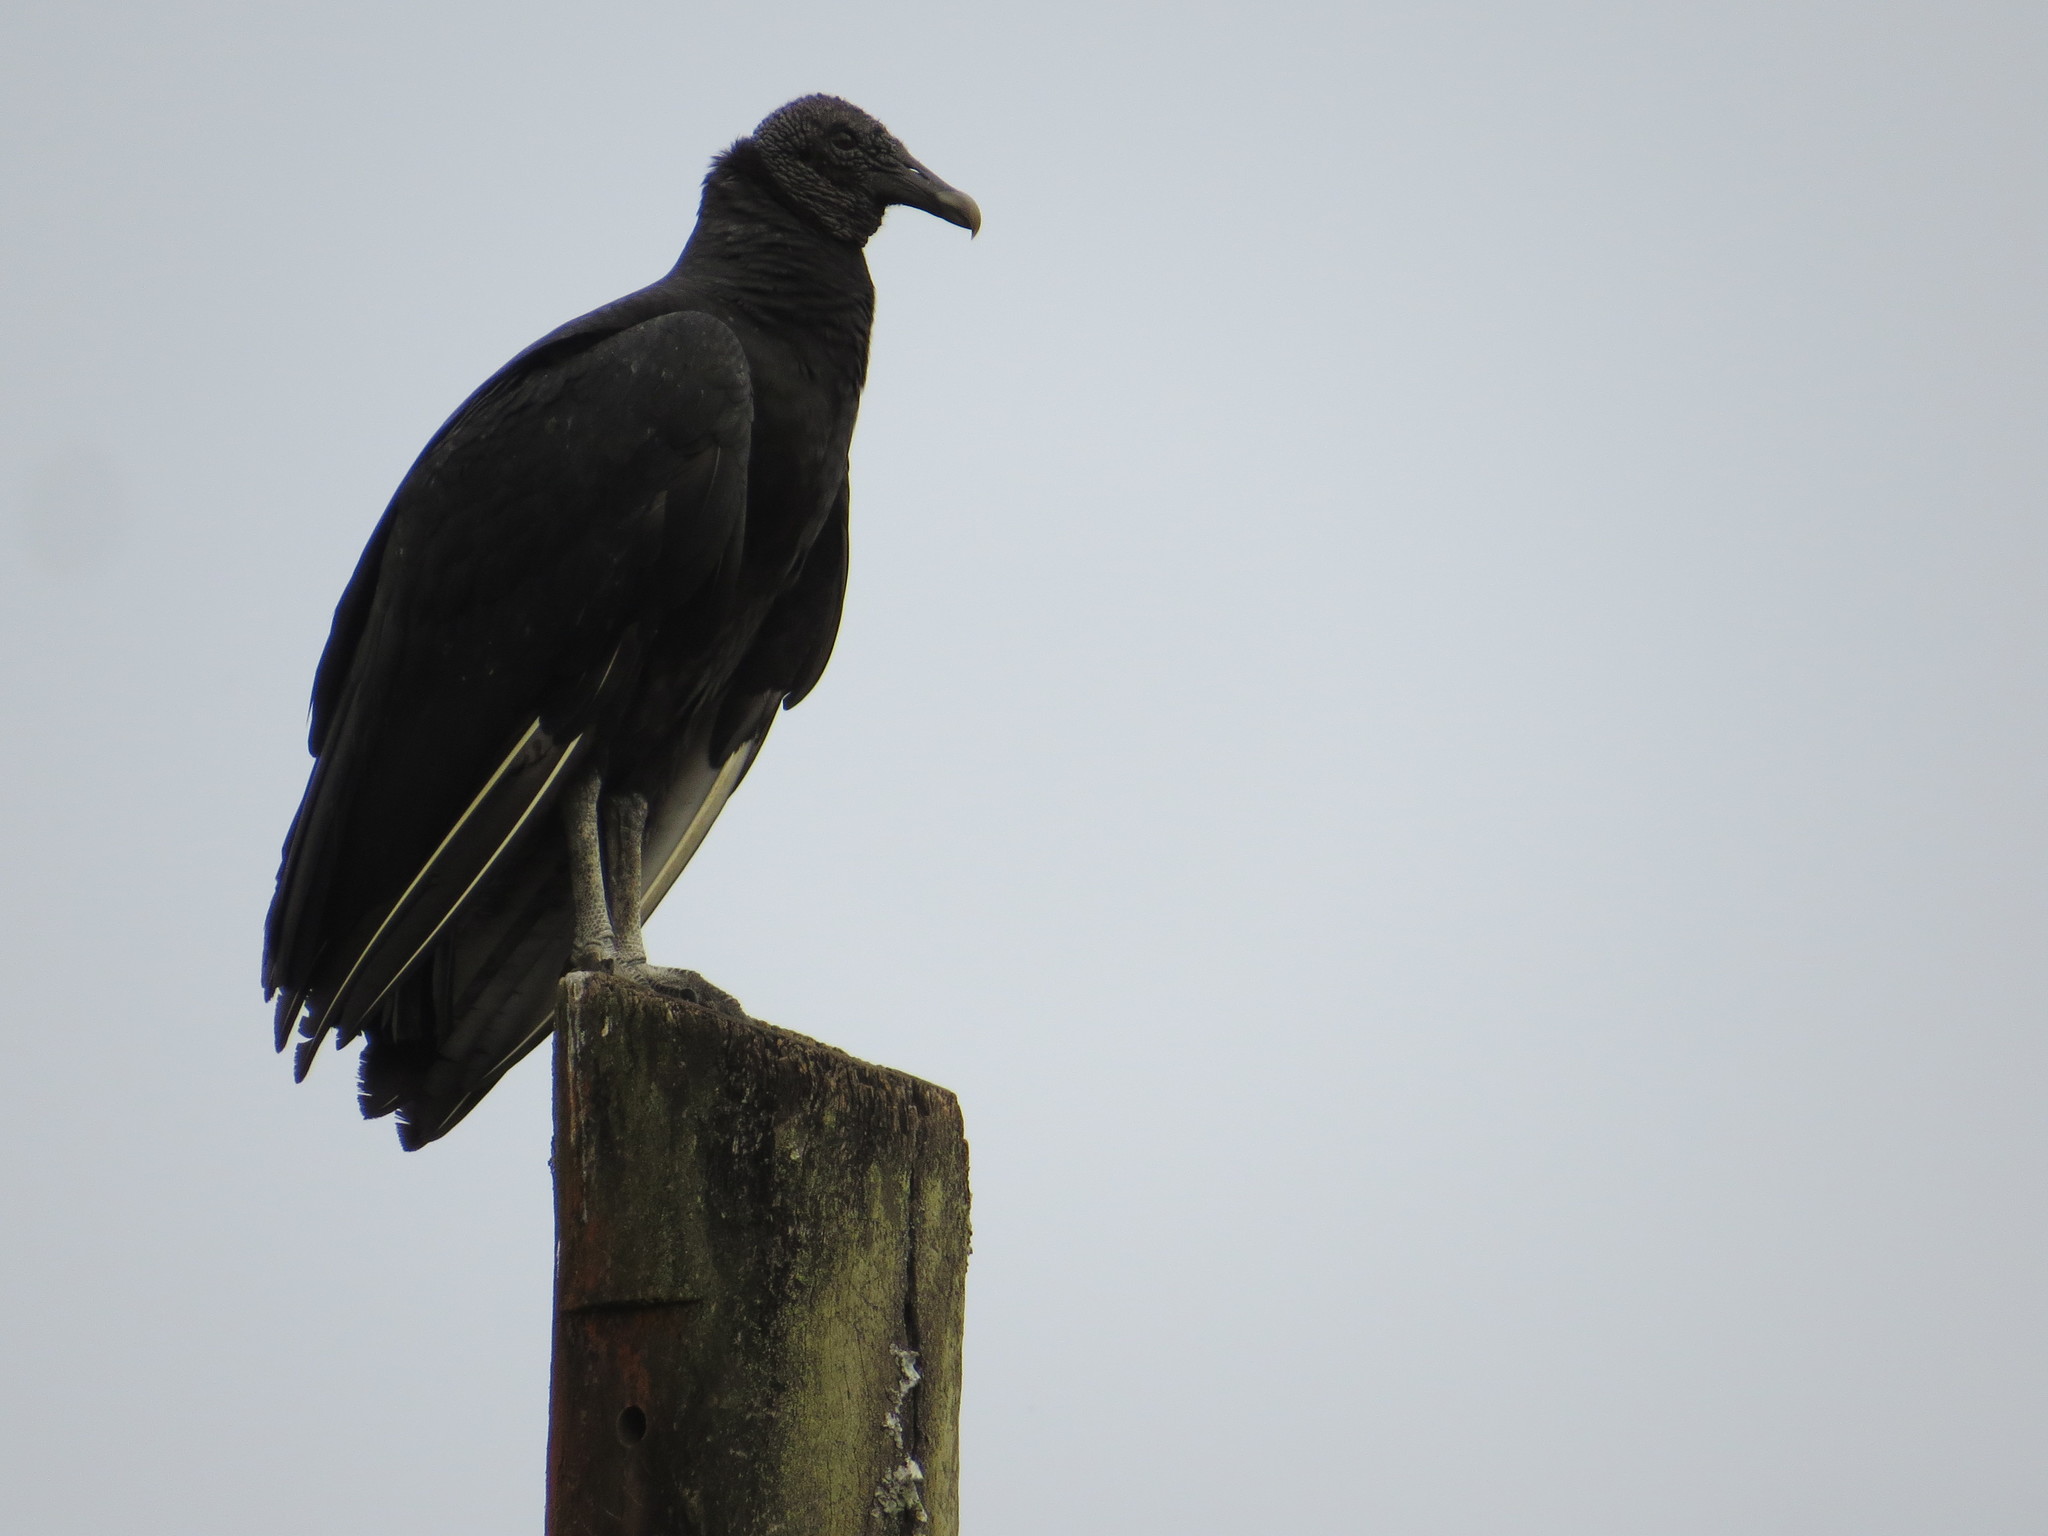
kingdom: Animalia
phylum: Chordata
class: Aves
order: Accipitriformes
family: Cathartidae
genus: Coragyps
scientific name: Coragyps atratus
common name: Black vulture
